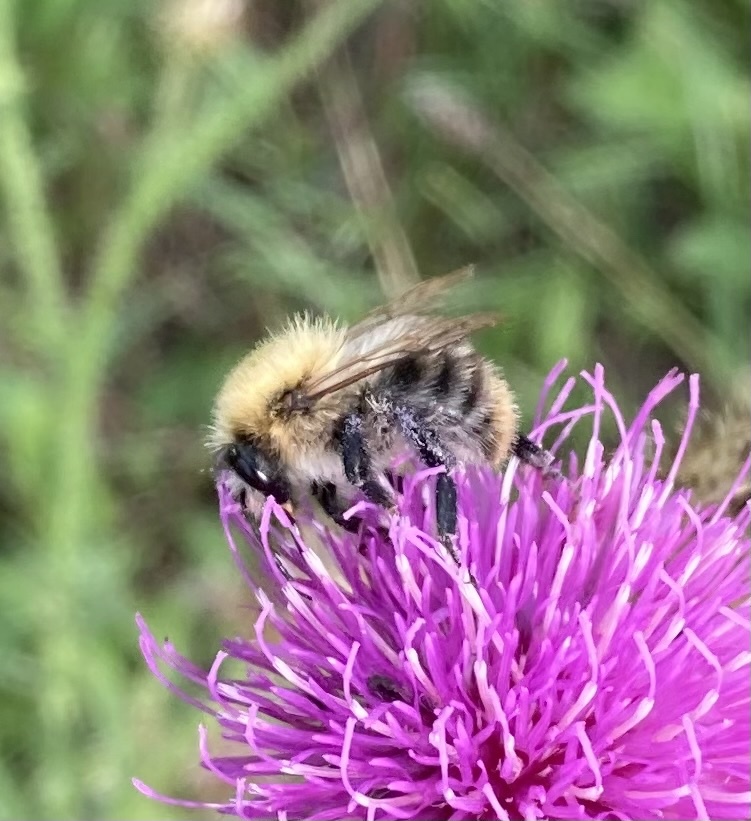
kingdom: Animalia
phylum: Arthropoda
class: Insecta
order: Hymenoptera
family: Apidae
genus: Bombus
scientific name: Bombus pascuorum
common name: Common carder bee
